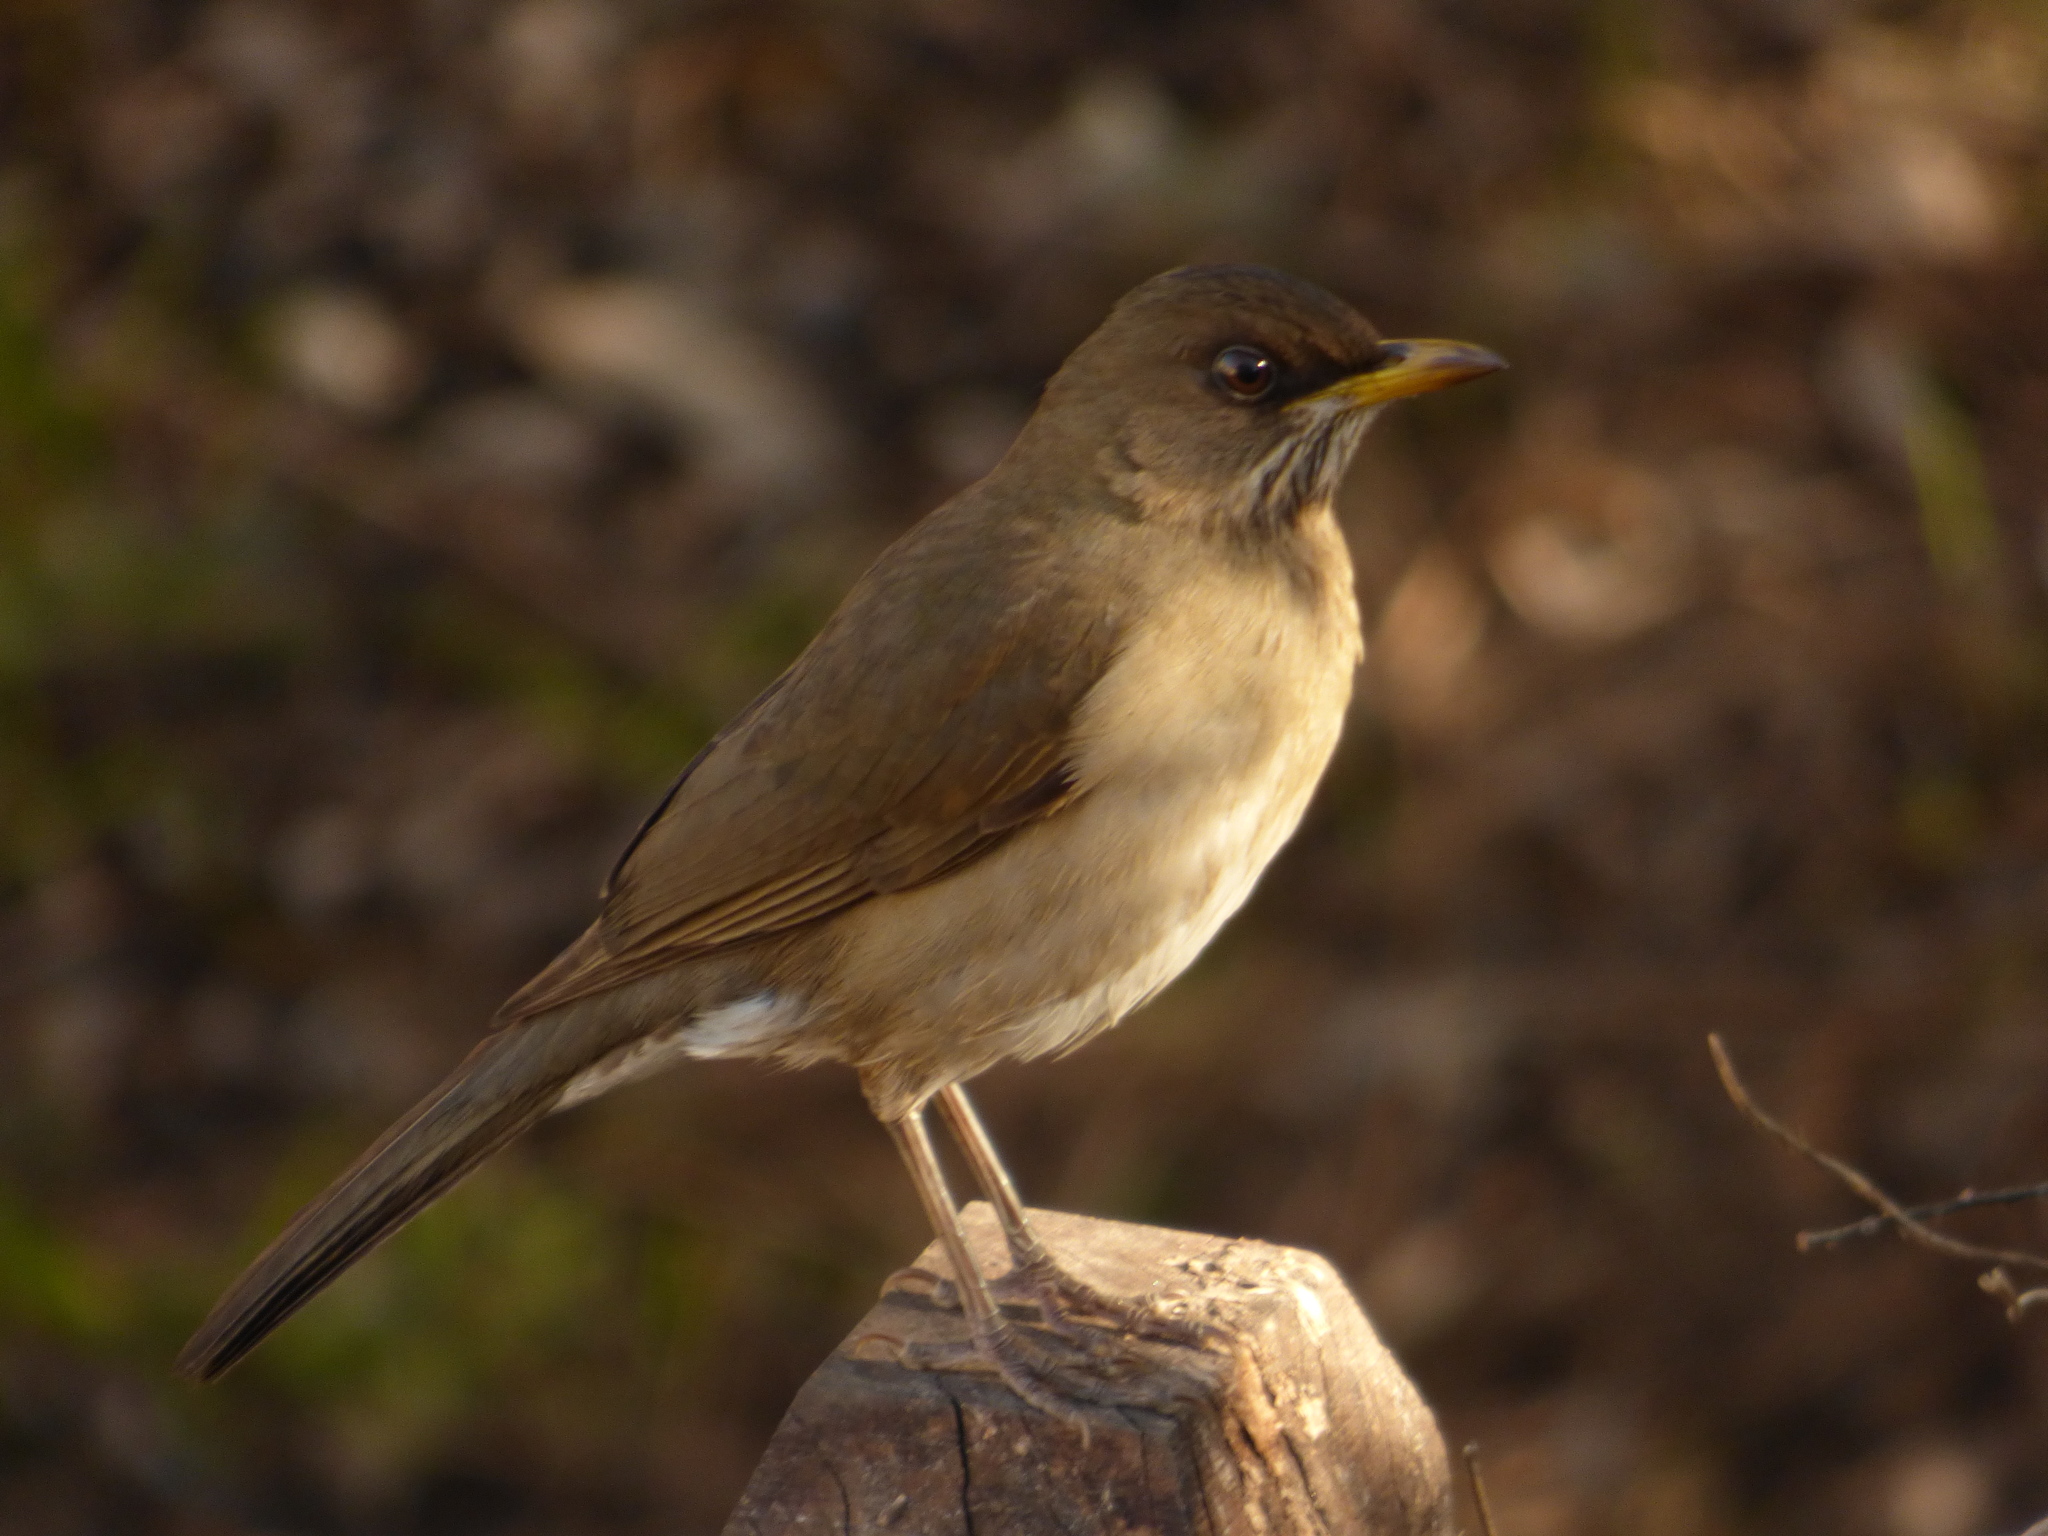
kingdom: Animalia
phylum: Chordata
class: Aves
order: Passeriformes
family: Turdidae
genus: Turdus
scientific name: Turdus amaurochalinus
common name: Creamy-bellied thrush
